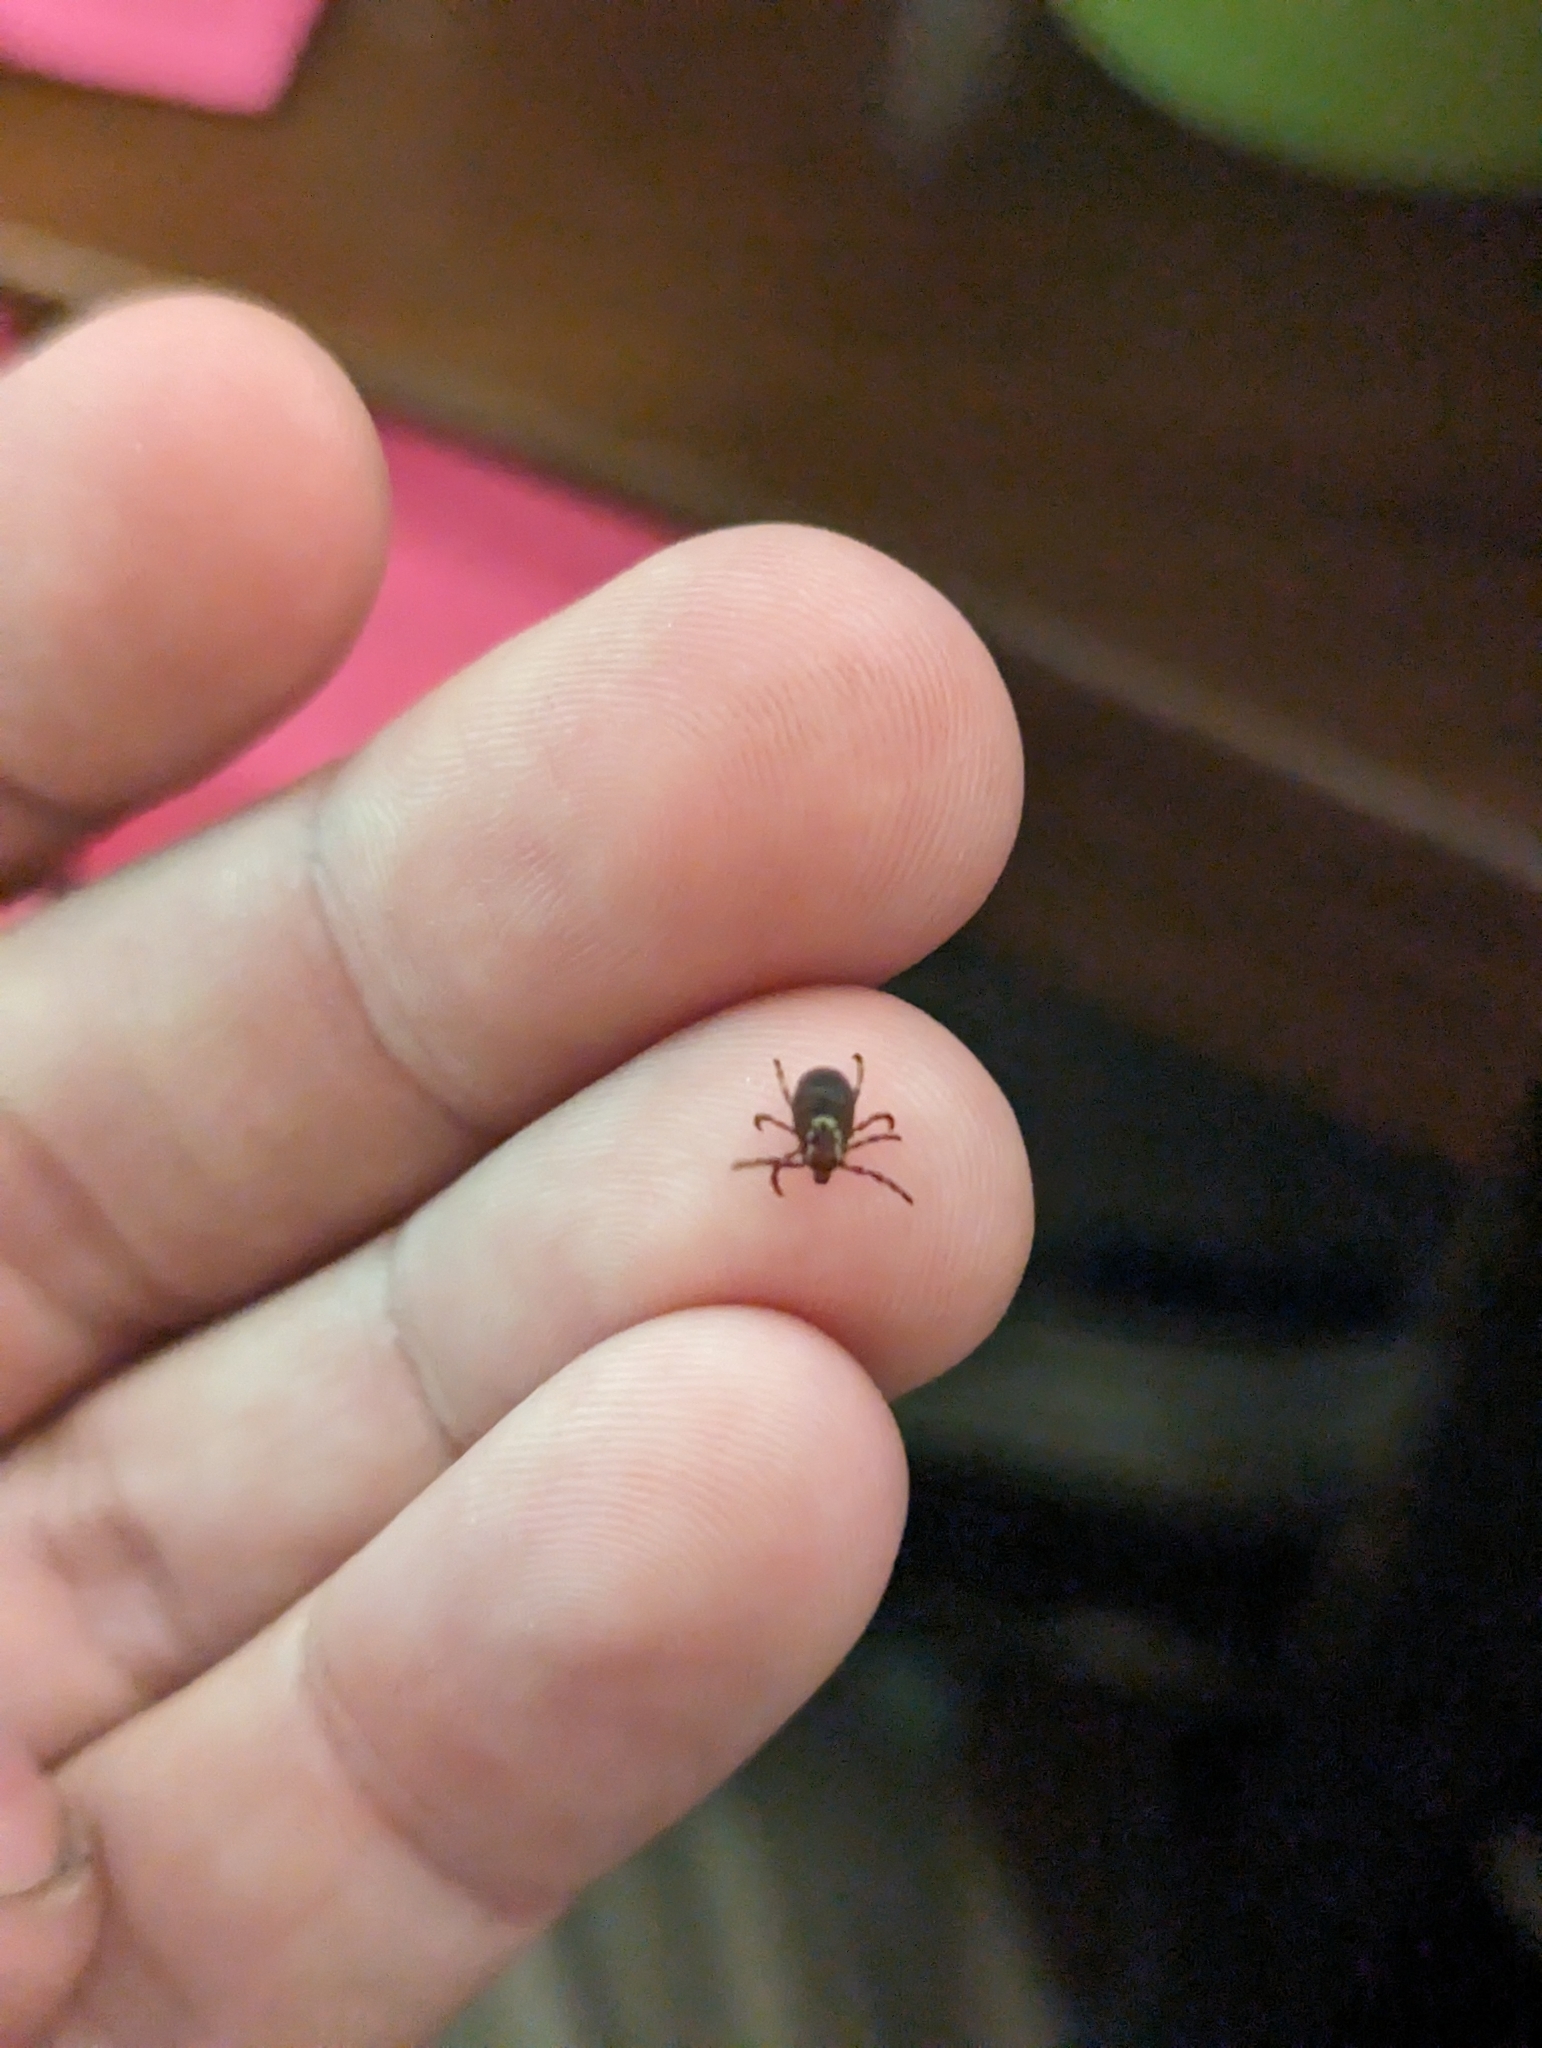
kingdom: Animalia
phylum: Arthropoda
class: Arachnida
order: Ixodida
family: Ixodidae
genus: Dermacentor
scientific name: Dermacentor variabilis
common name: American dog tick
